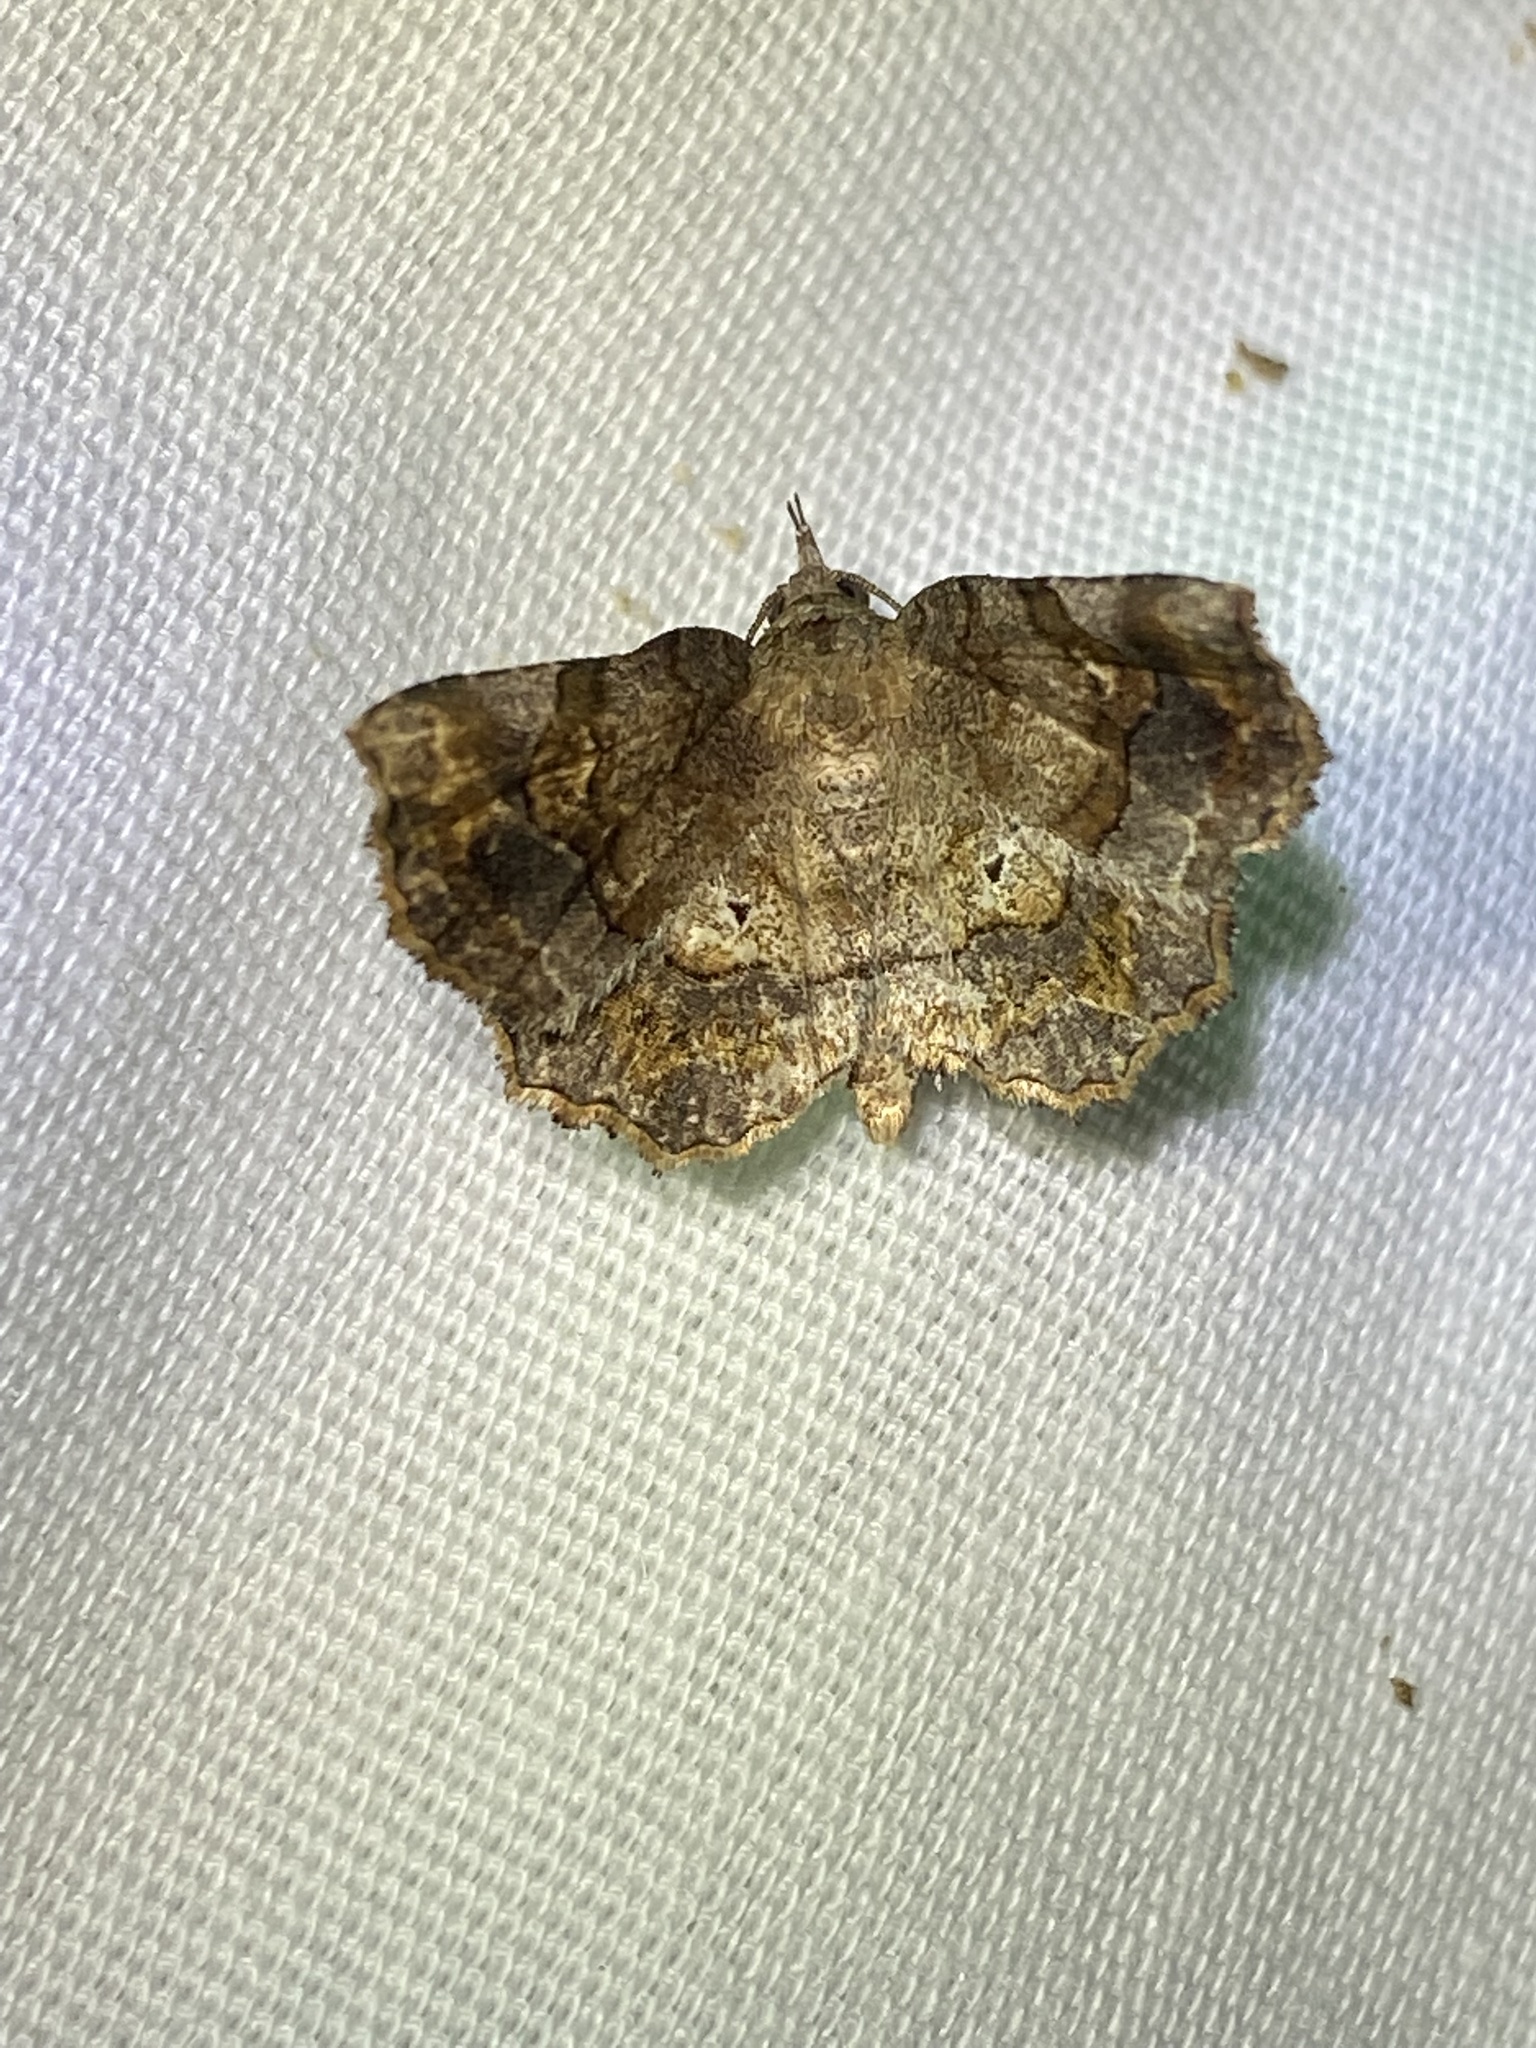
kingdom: Animalia
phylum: Arthropoda
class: Insecta
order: Lepidoptera
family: Erebidae
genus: Pangrapta
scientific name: Pangrapta decoralis
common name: Decorated owlet
